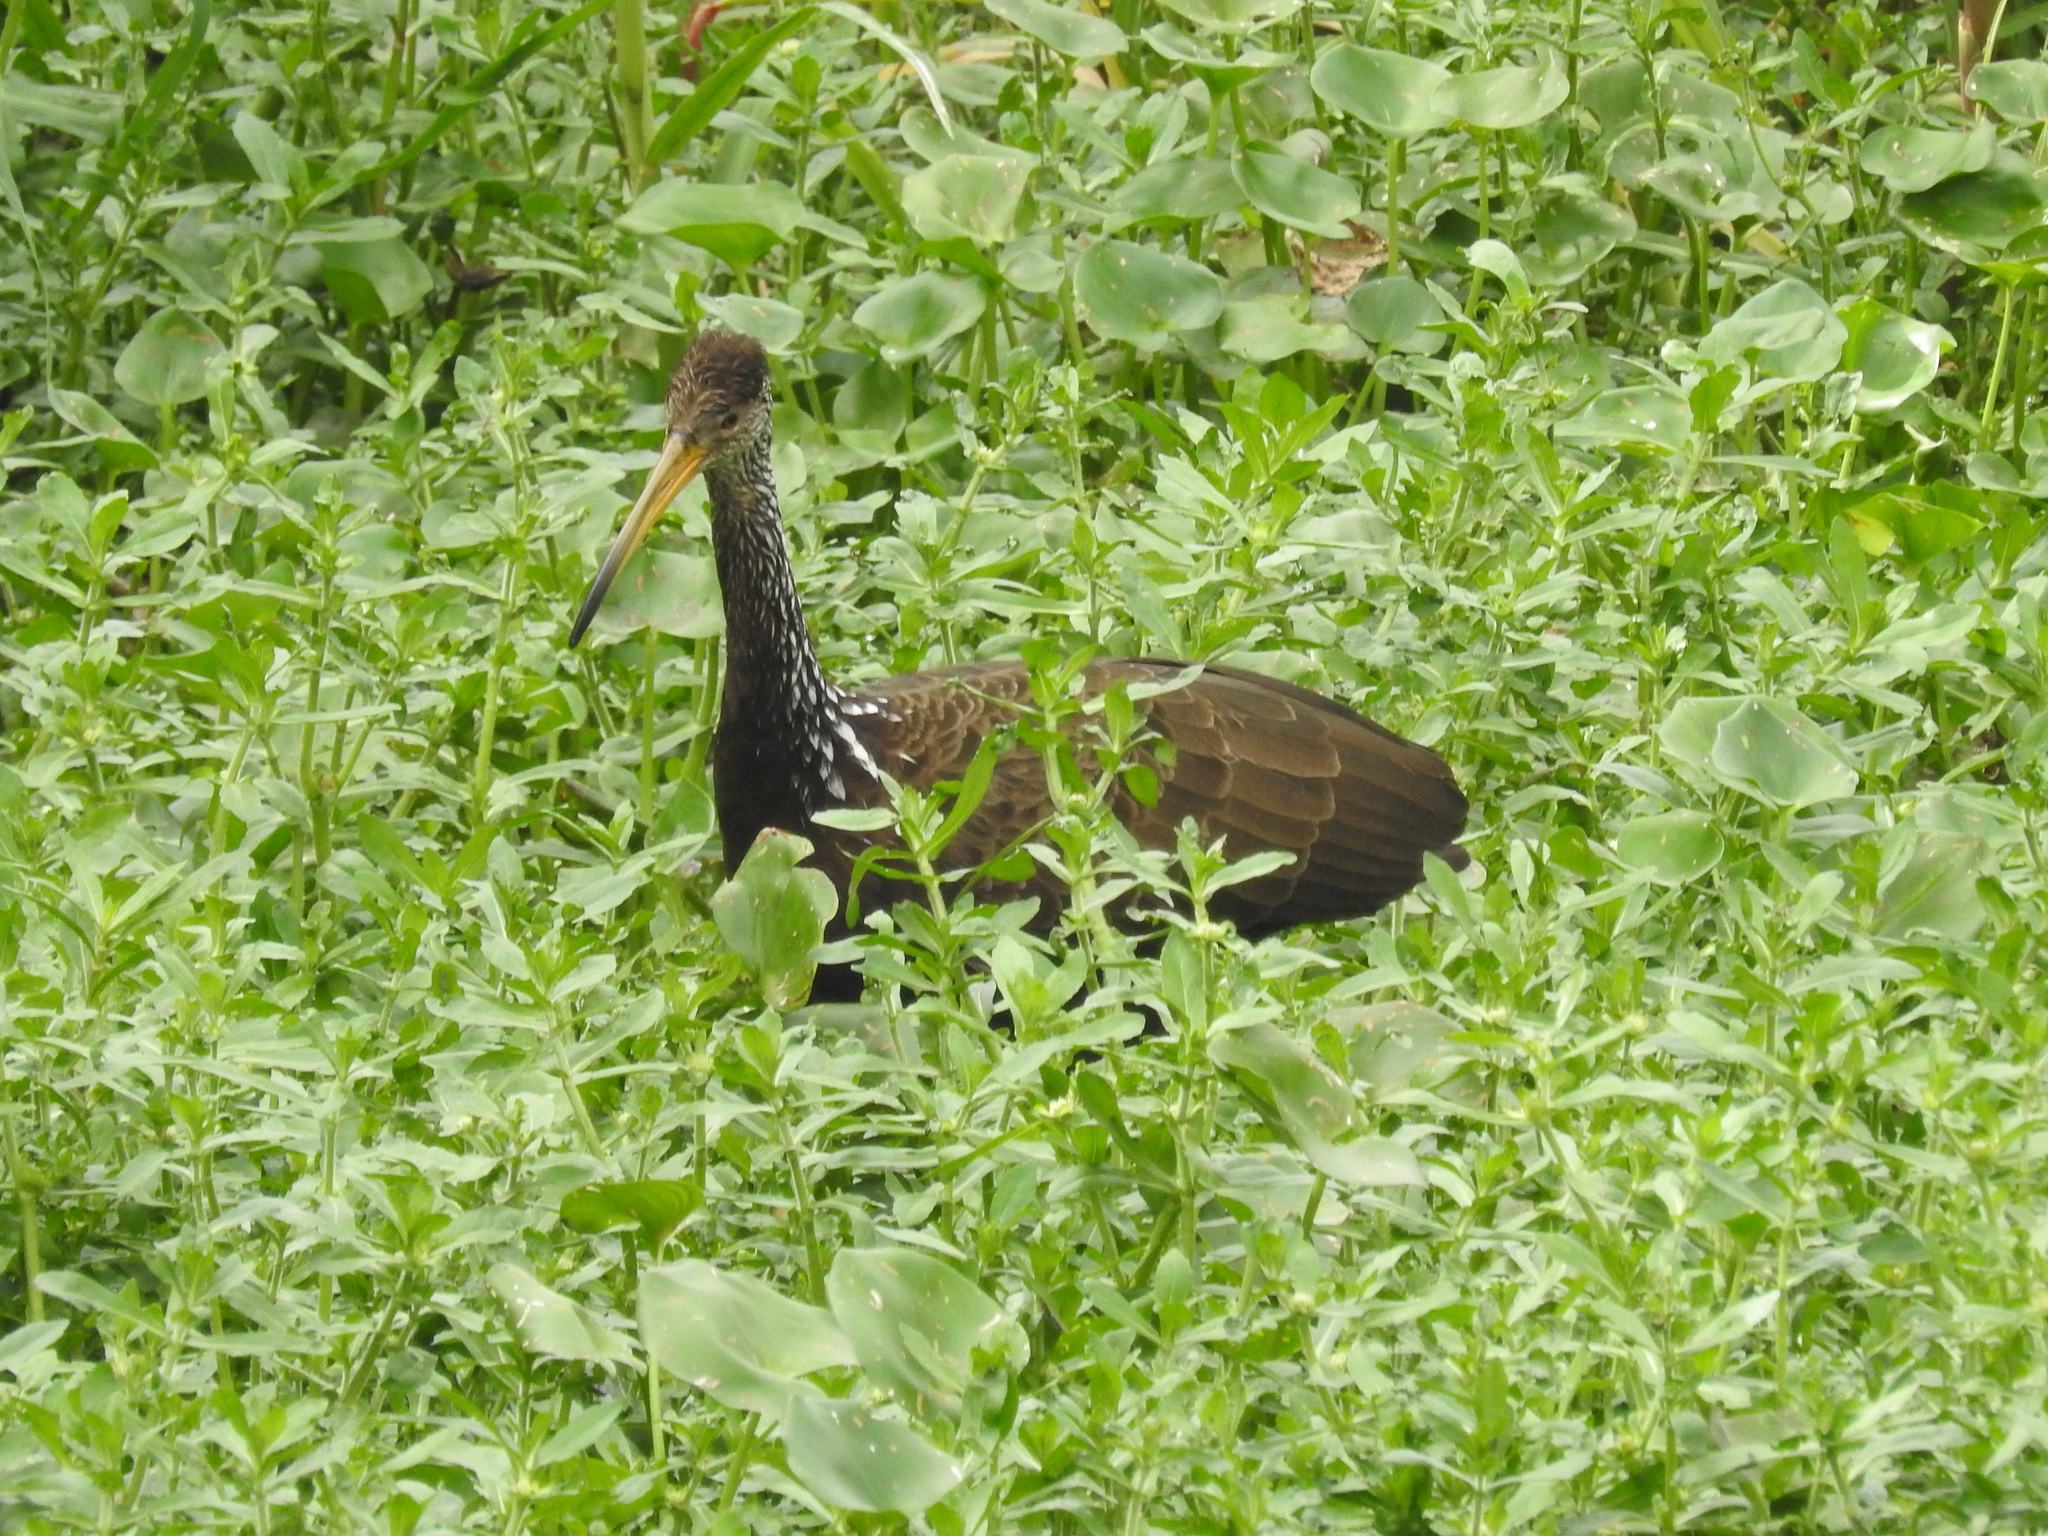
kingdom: Animalia
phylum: Chordata
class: Aves
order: Gruiformes
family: Aramidae
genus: Aramus
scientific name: Aramus guarauna
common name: Limpkin
